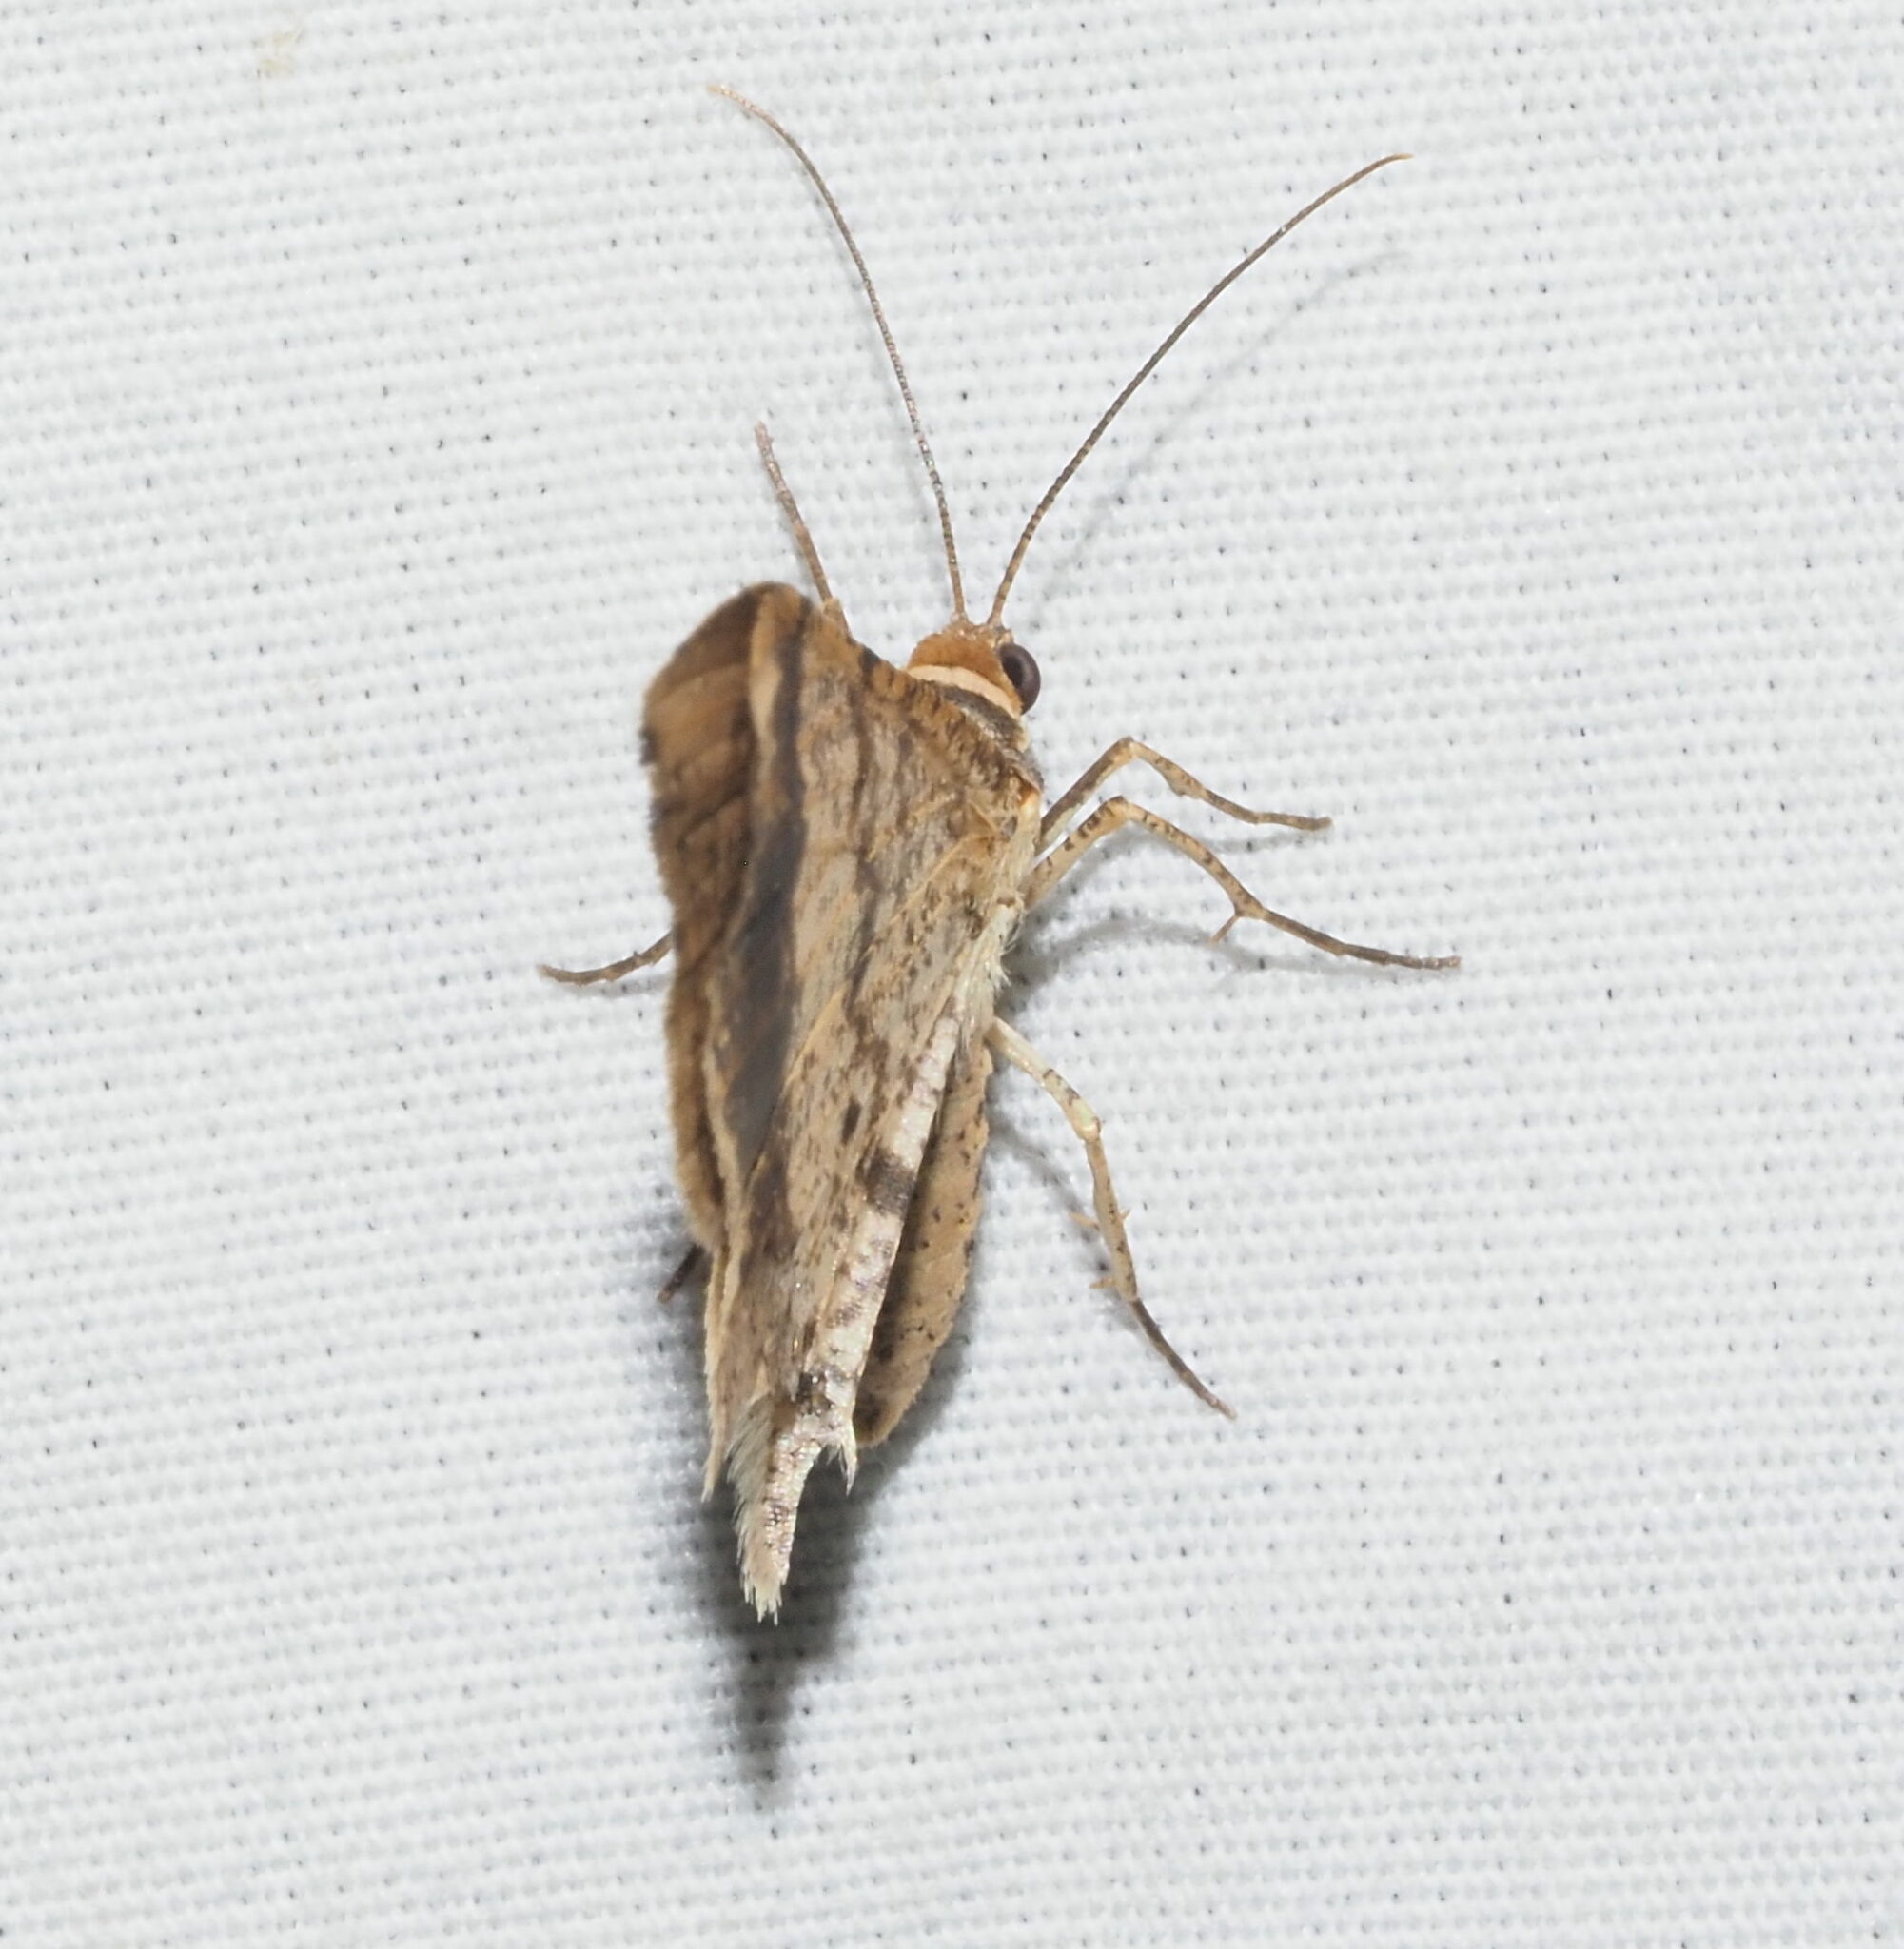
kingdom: Animalia
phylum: Arthropoda
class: Insecta
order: Lepidoptera
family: Geometridae
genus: Macaria
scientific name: Macaria abydata
